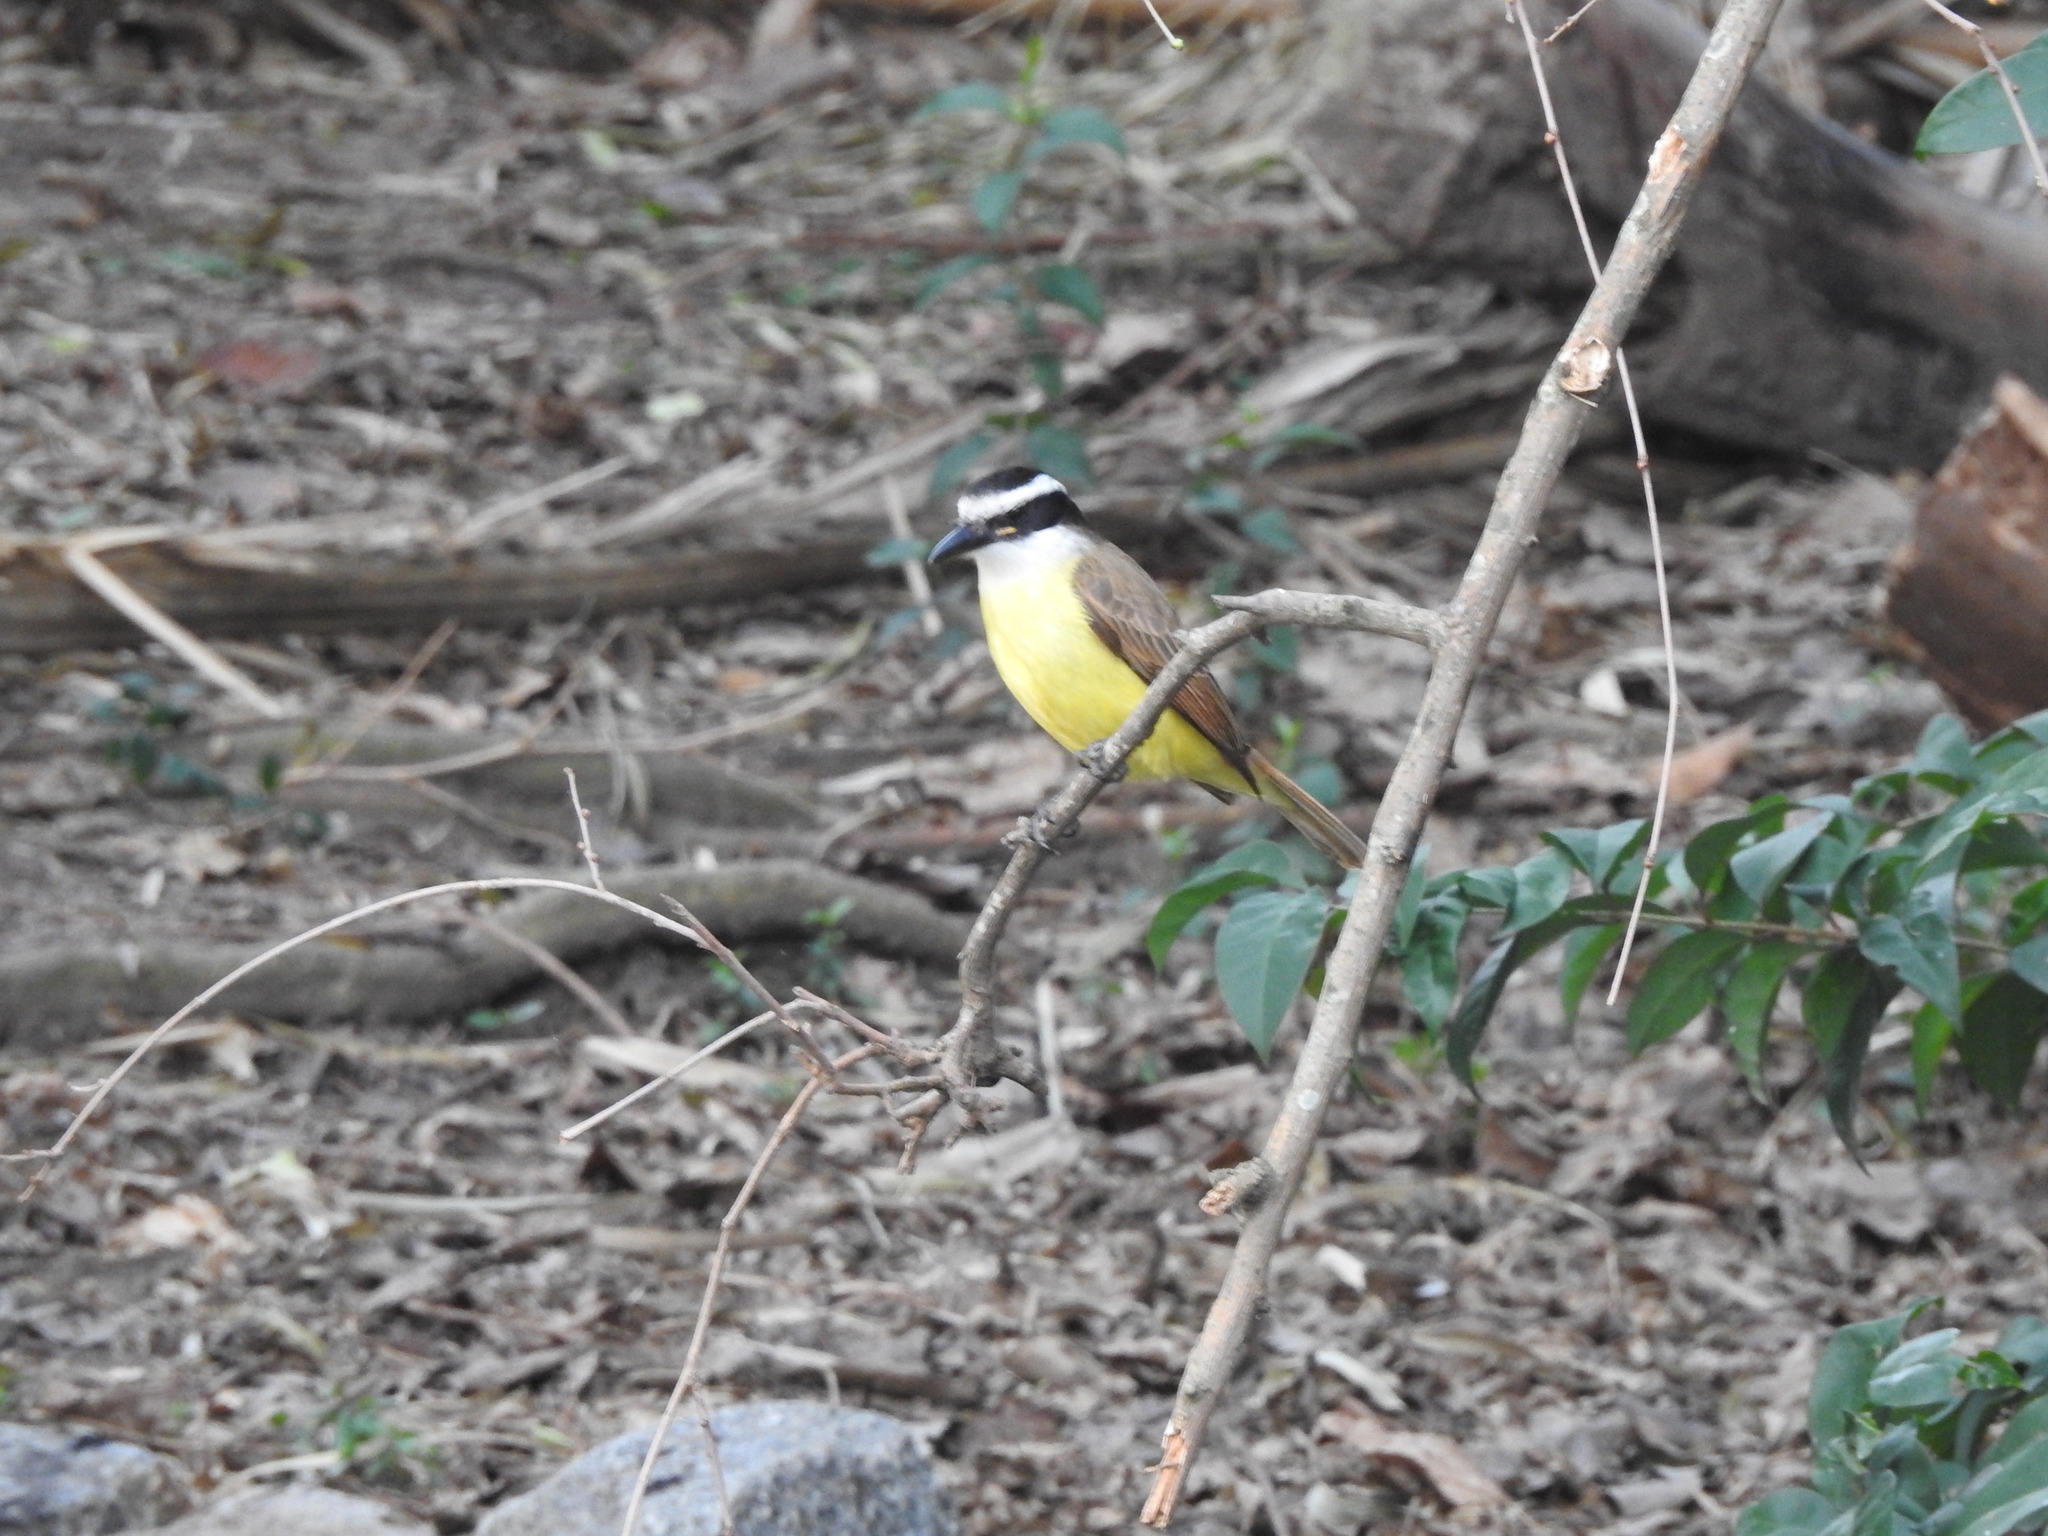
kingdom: Animalia
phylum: Chordata
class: Aves
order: Passeriformes
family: Tyrannidae
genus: Pitangus
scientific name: Pitangus sulphuratus
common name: Great kiskadee
